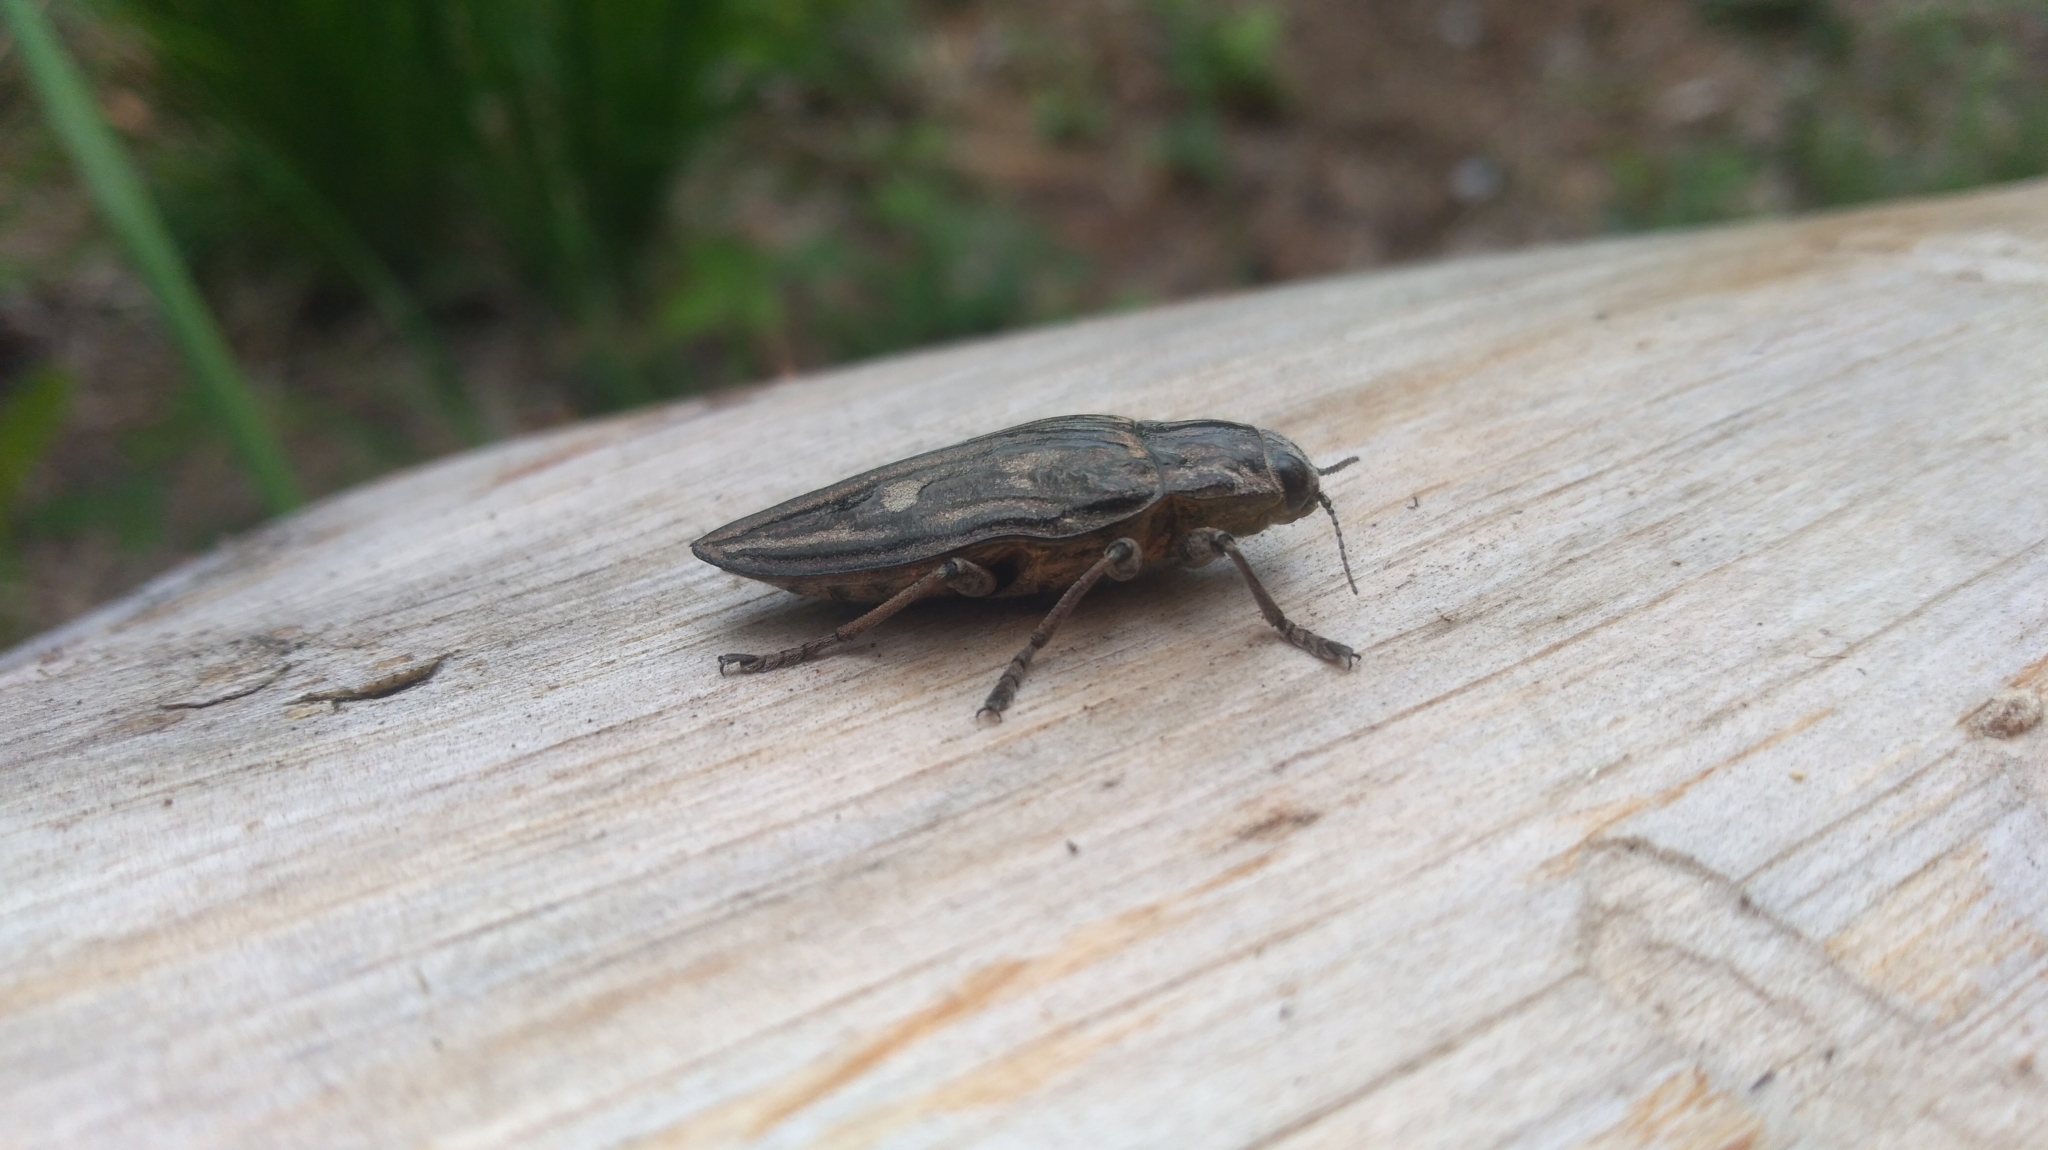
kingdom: Animalia
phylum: Arthropoda
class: Insecta
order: Coleoptera
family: Buprestidae
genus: Chalcophora
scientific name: Chalcophora mariana
